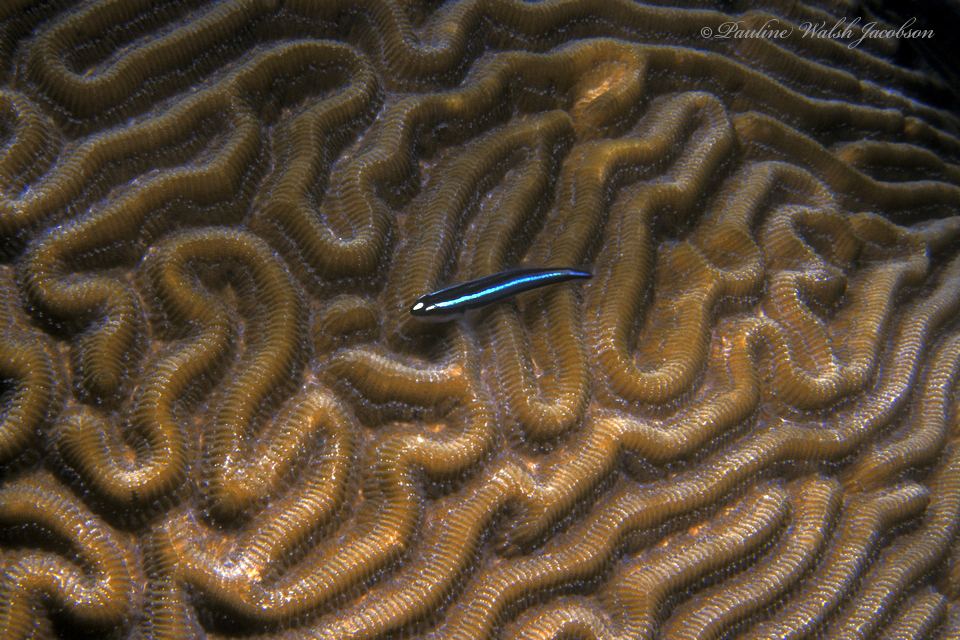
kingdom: Animalia
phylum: Chordata
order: Perciformes
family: Gobiidae
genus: Elacatinus
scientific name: Elacatinus illecebrosus
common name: Barsnout goby
